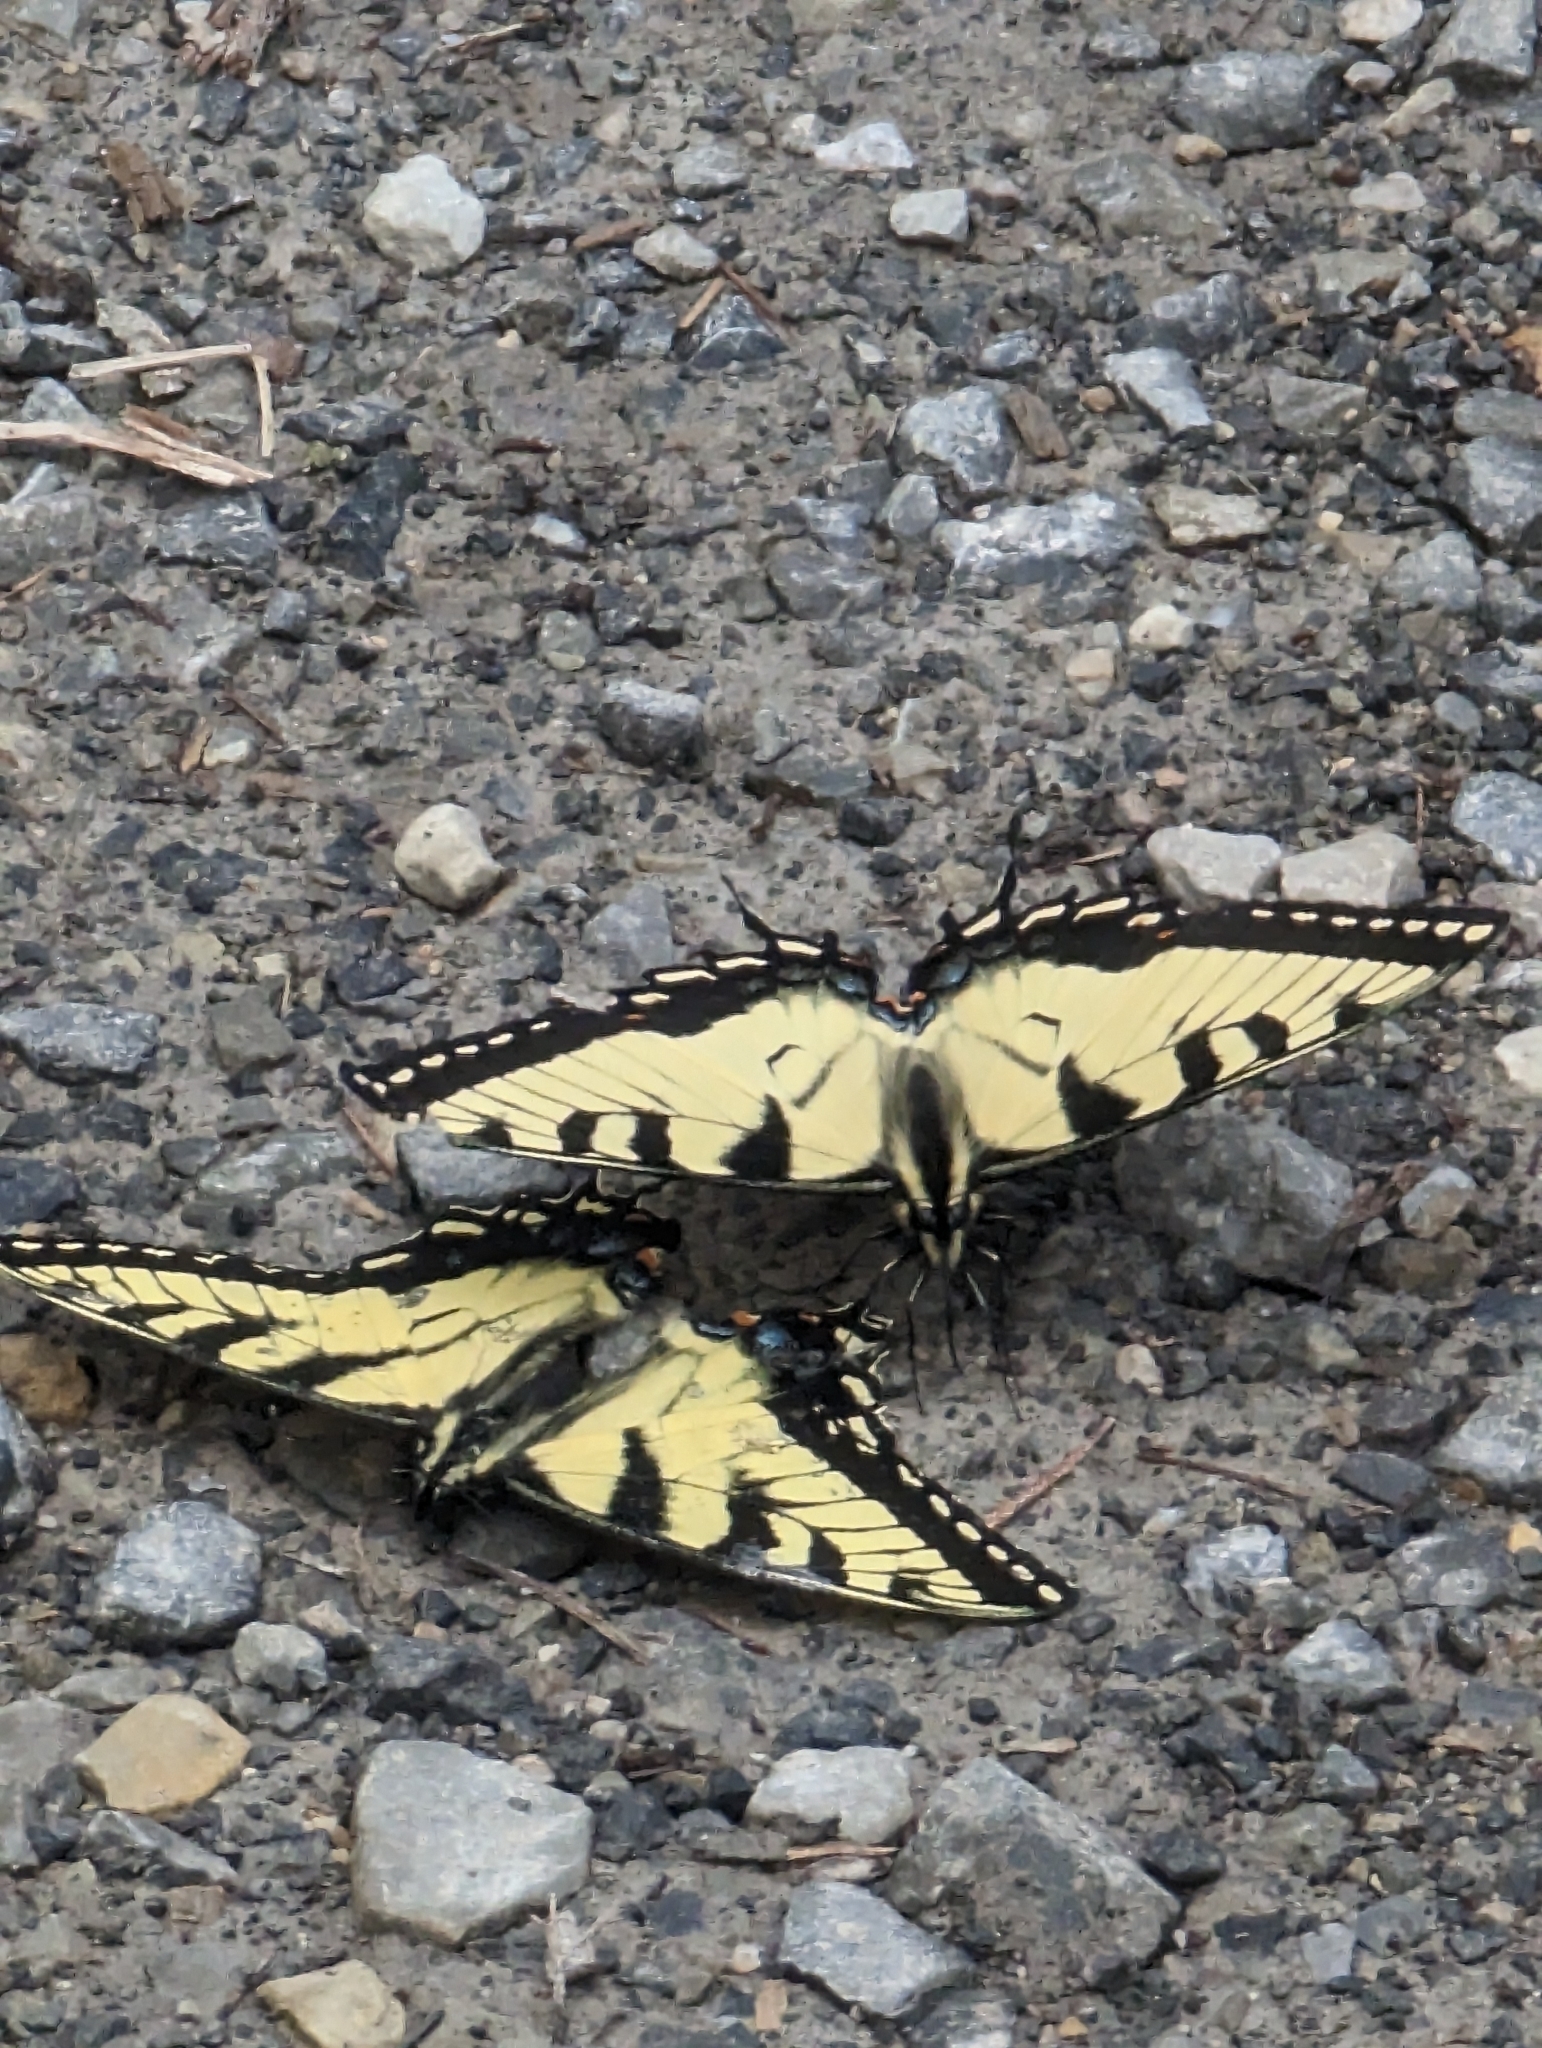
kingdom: Animalia
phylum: Arthropoda
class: Insecta
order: Lepidoptera
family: Papilionidae
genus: Papilio
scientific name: Papilio glaucus
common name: Tiger swallowtail
